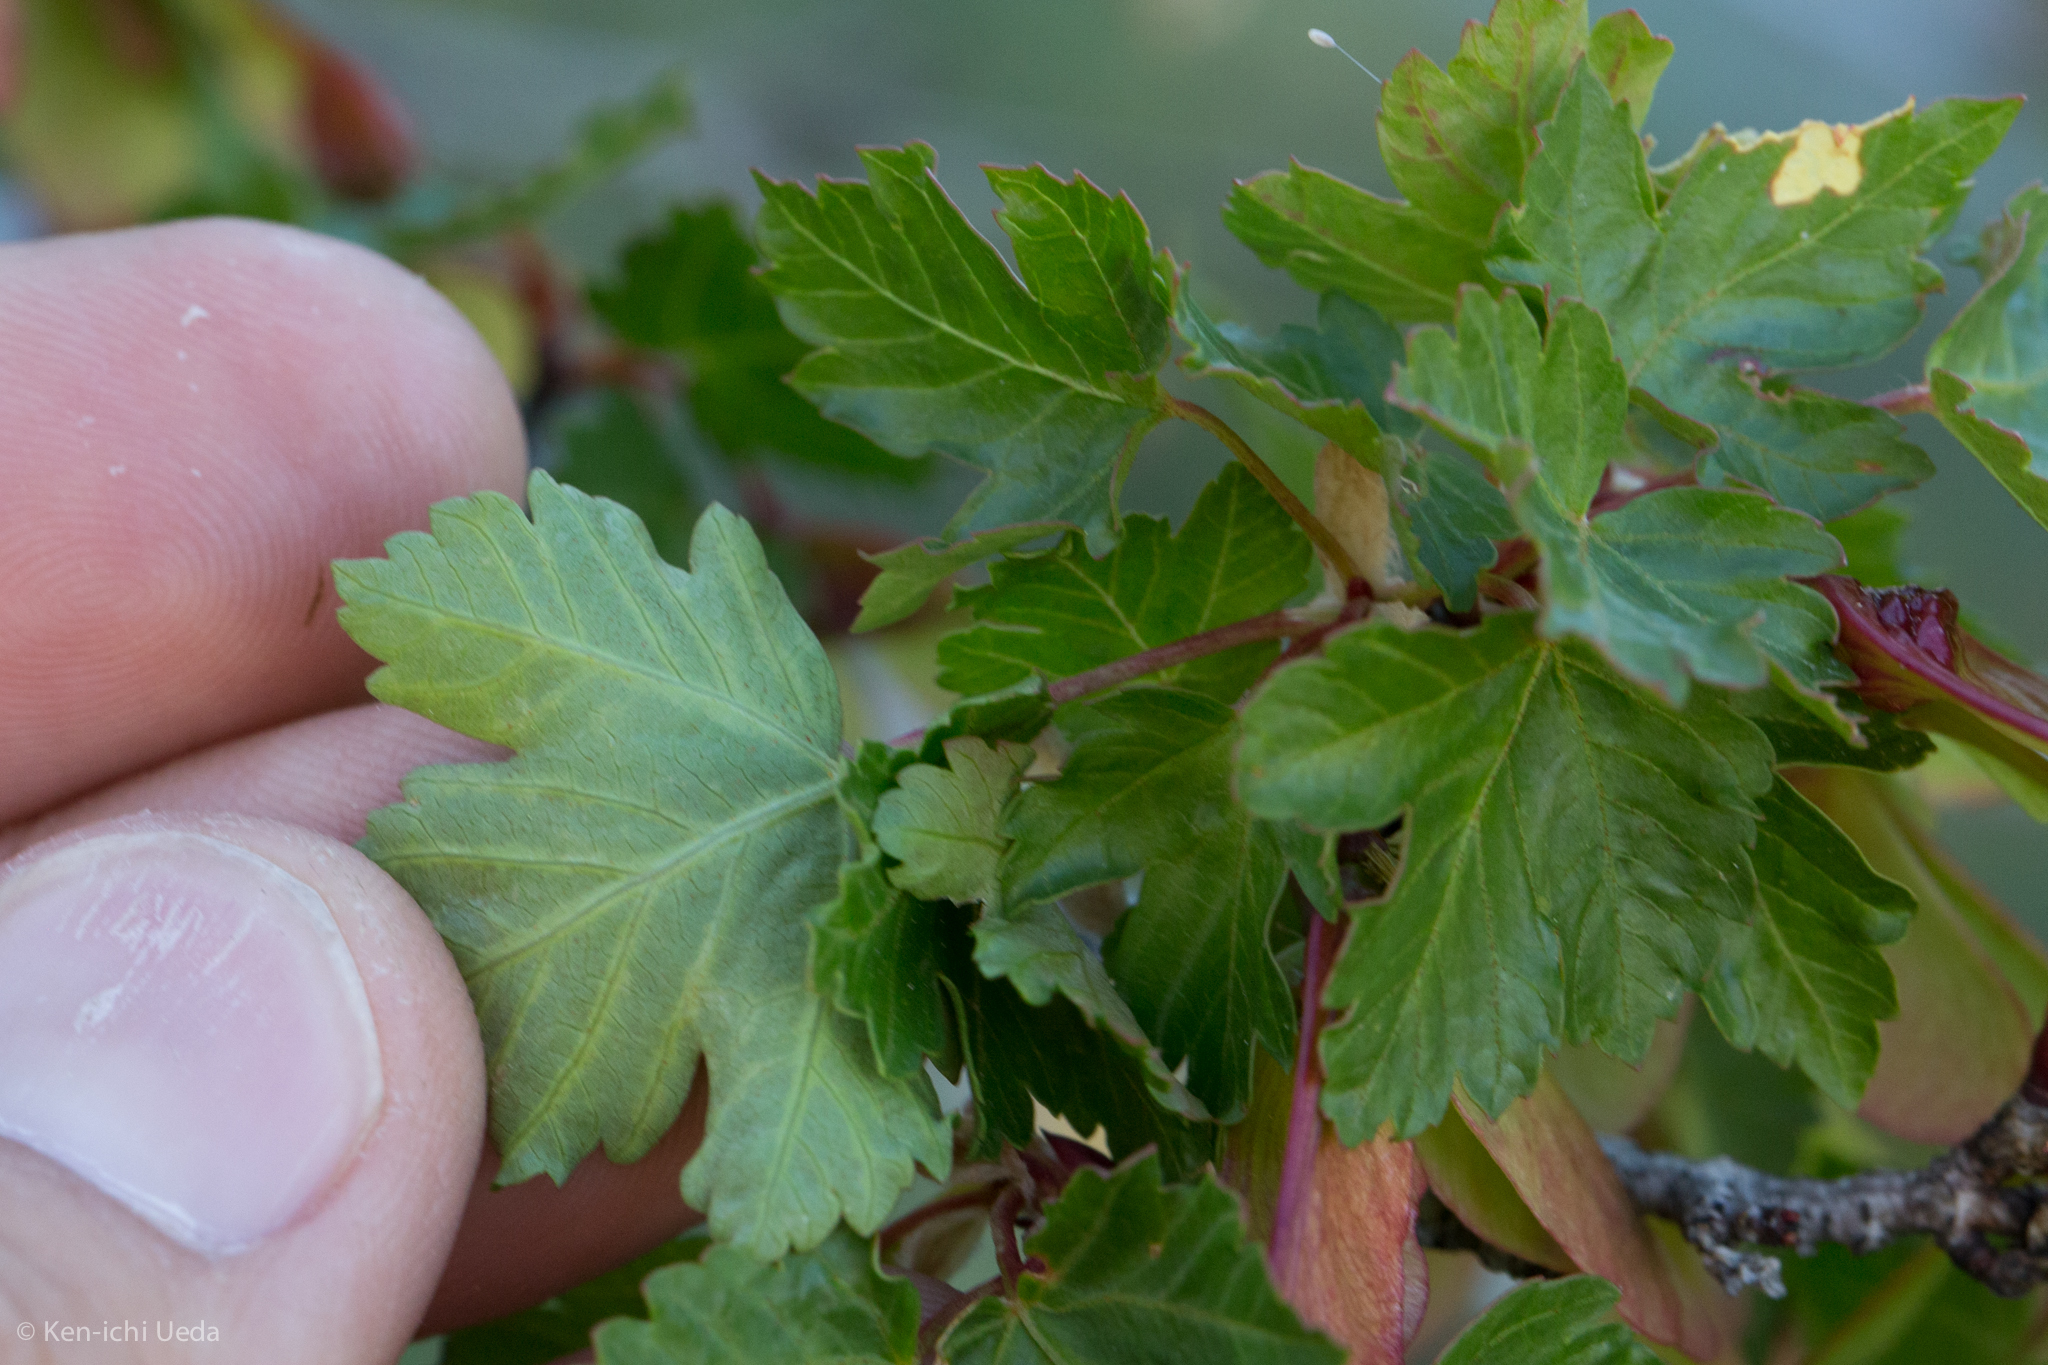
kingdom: Plantae
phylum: Tracheophyta
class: Magnoliopsida
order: Sapindales
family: Sapindaceae
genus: Acer
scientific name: Acer glabrum
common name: Rocky mountain maple
